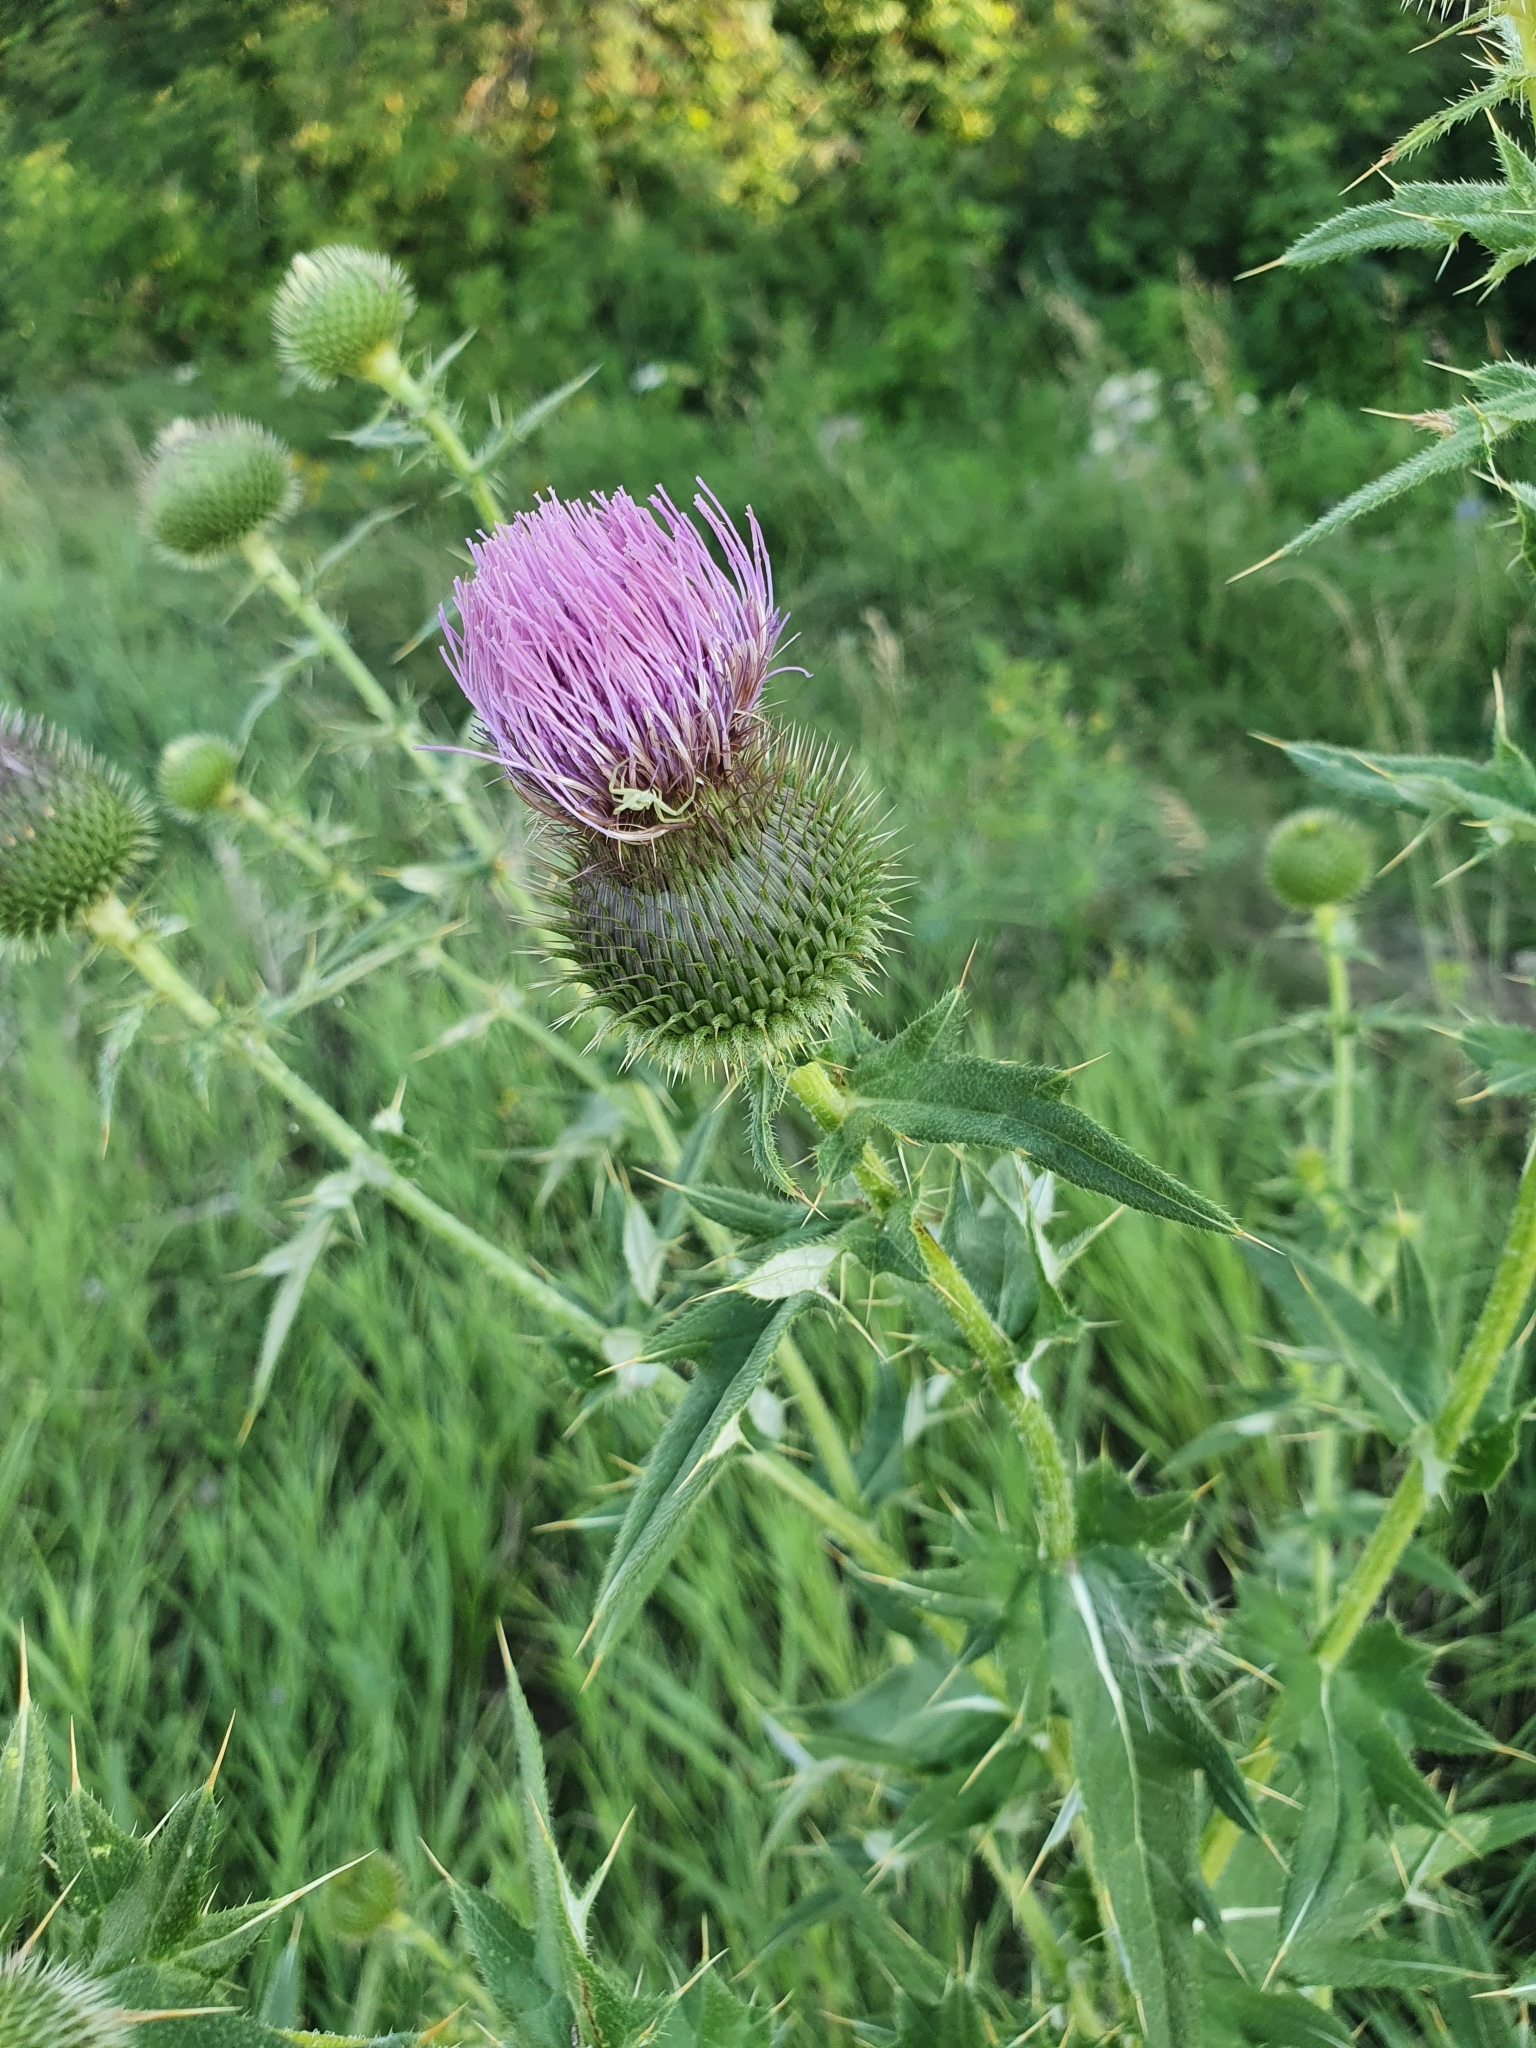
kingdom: Plantae
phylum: Tracheophyta
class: Magnoliopsida
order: Asterales
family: Asteraceae
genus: Cirsium
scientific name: Cirsium serrulatum
